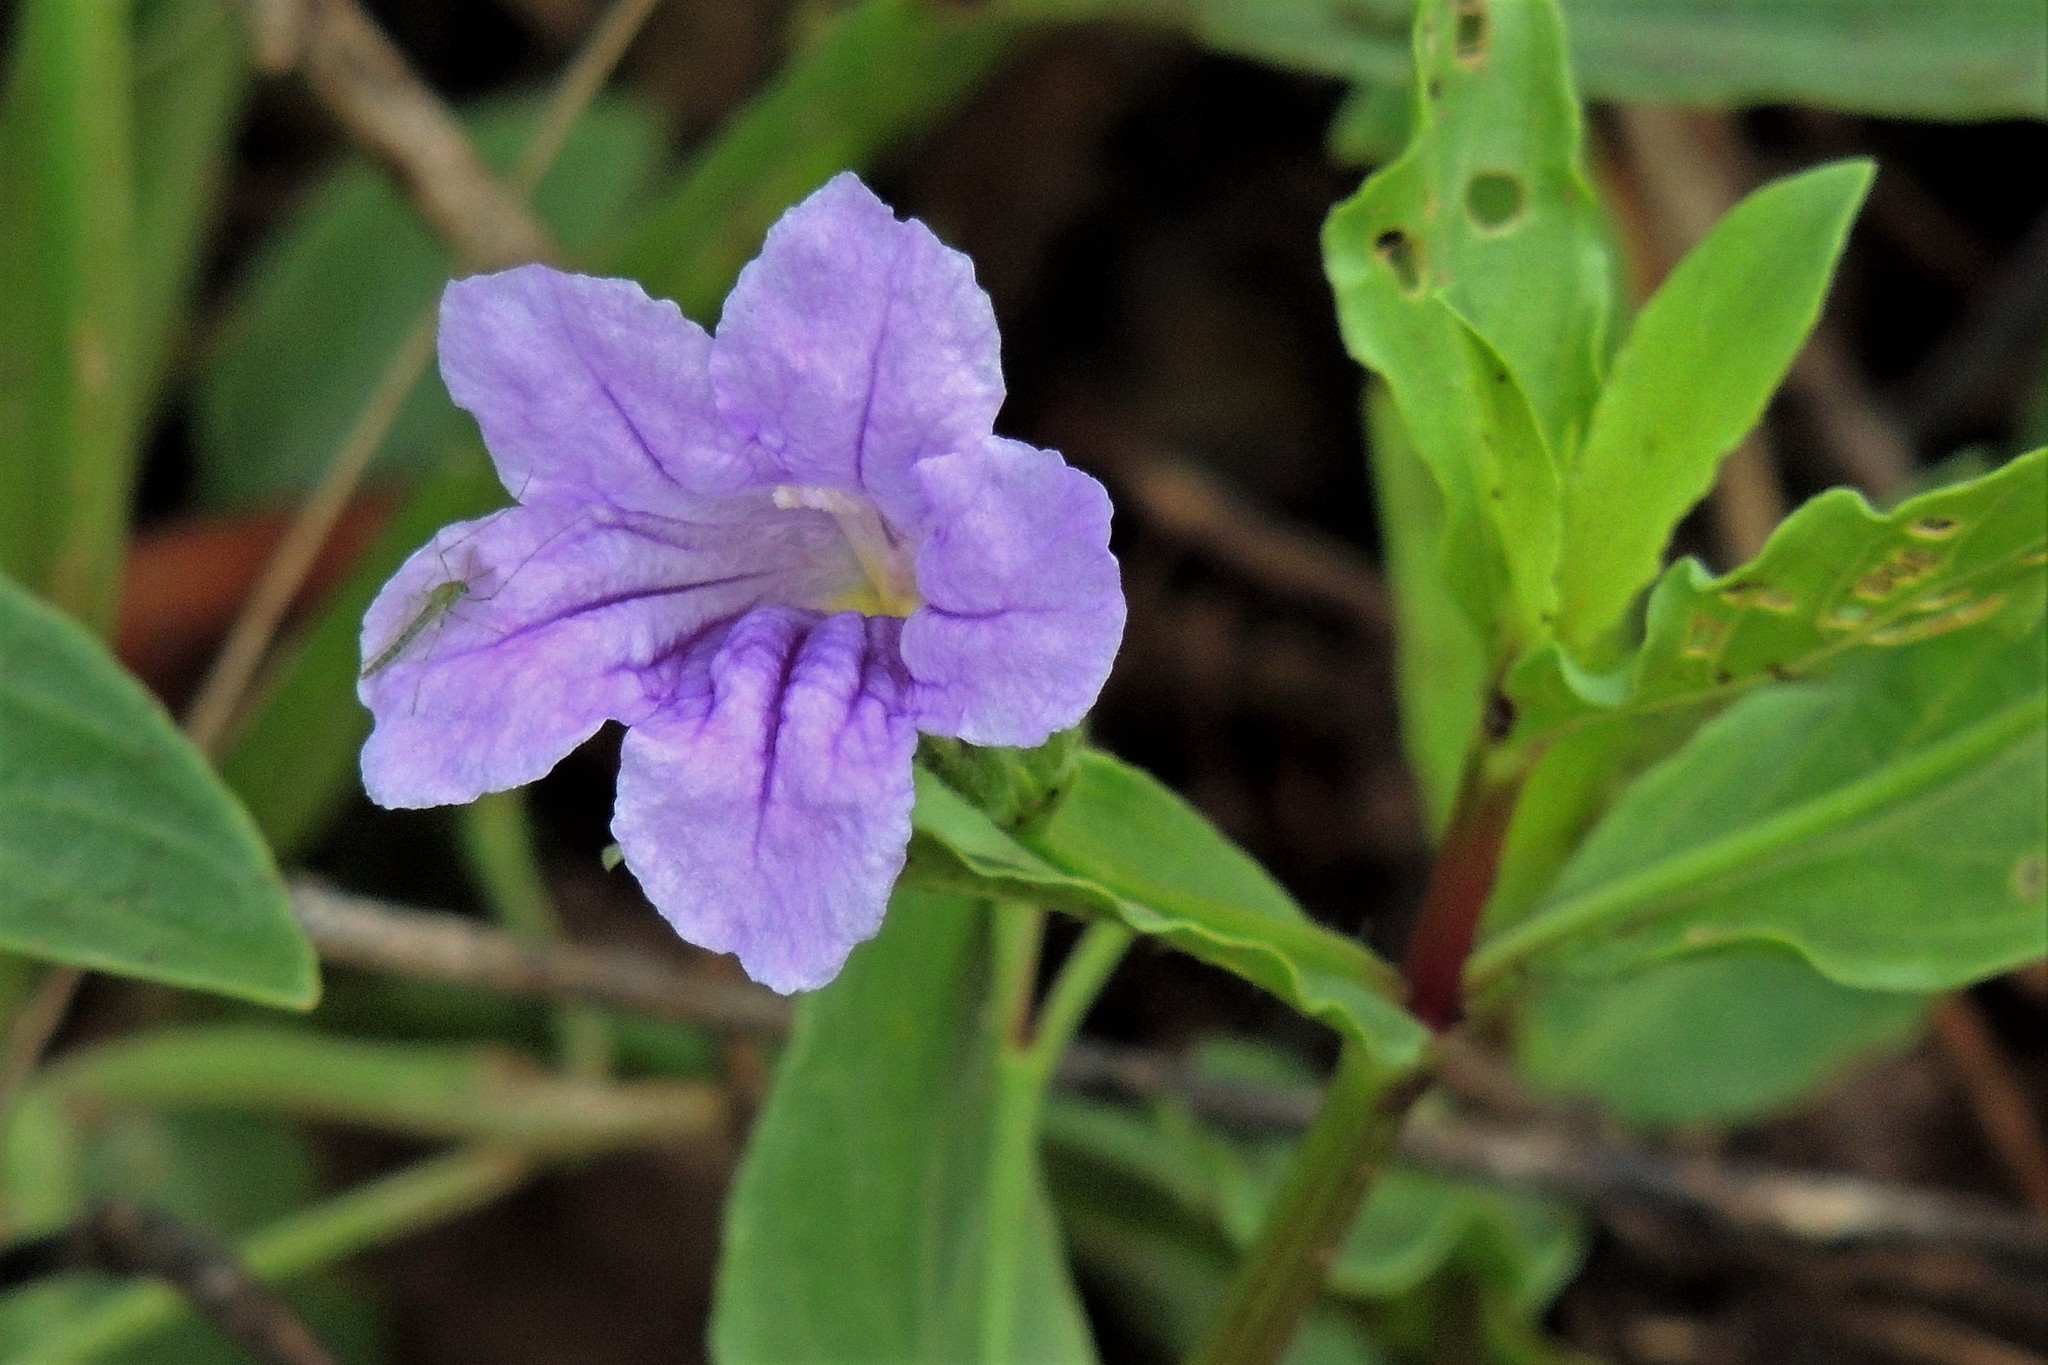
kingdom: Plantae
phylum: Tracheophyta
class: Magnoliopsida
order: Lamiales
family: Acanthaceae
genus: Ruellia
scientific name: Ruellia erythropus
